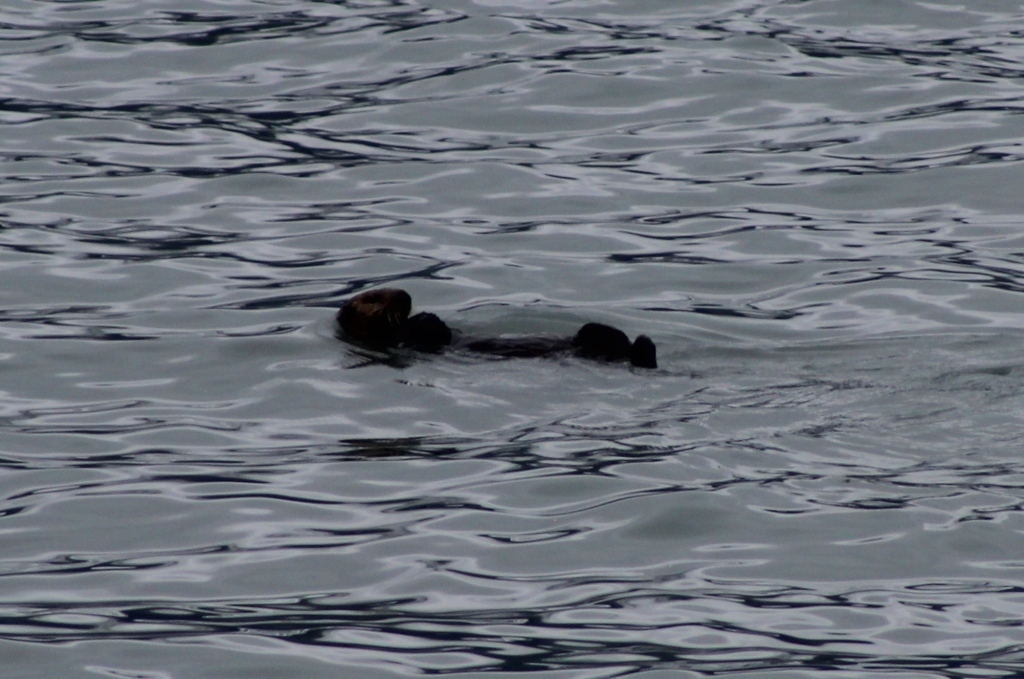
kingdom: Animalia
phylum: Chordata
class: Mammalia
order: Carnivora
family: Mustelidae
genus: Enhydra
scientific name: Enhydra lutris
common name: Sea otter
